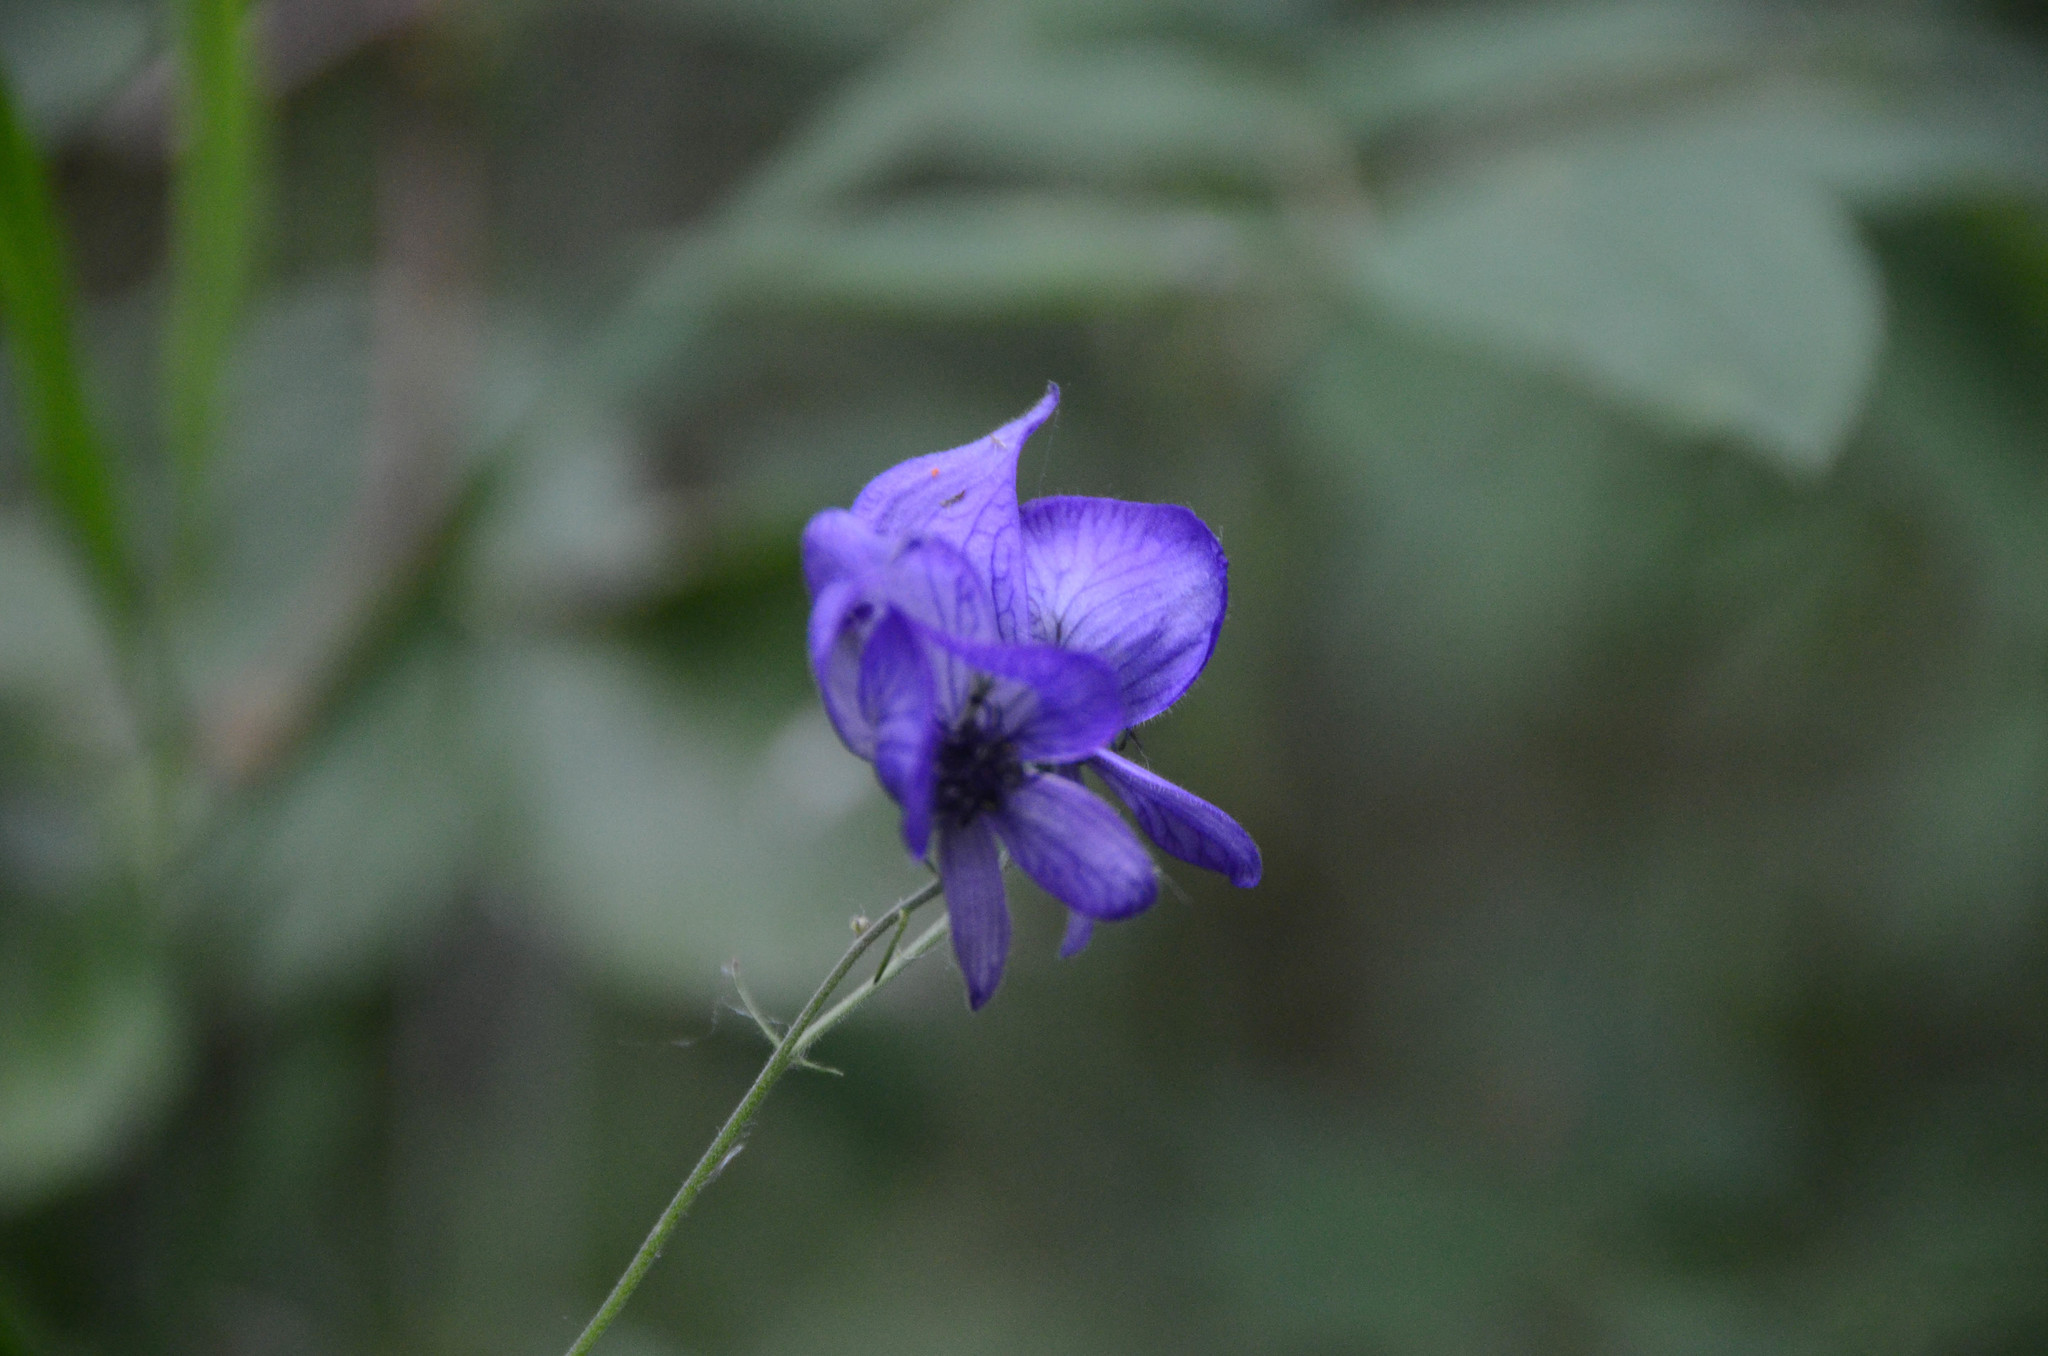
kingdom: Plantae
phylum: Tracheophyta
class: Magnoliopsida
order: Ranunculales
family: Ranunculaceae
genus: Aconitum
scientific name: Aconitum delphiniifolium
